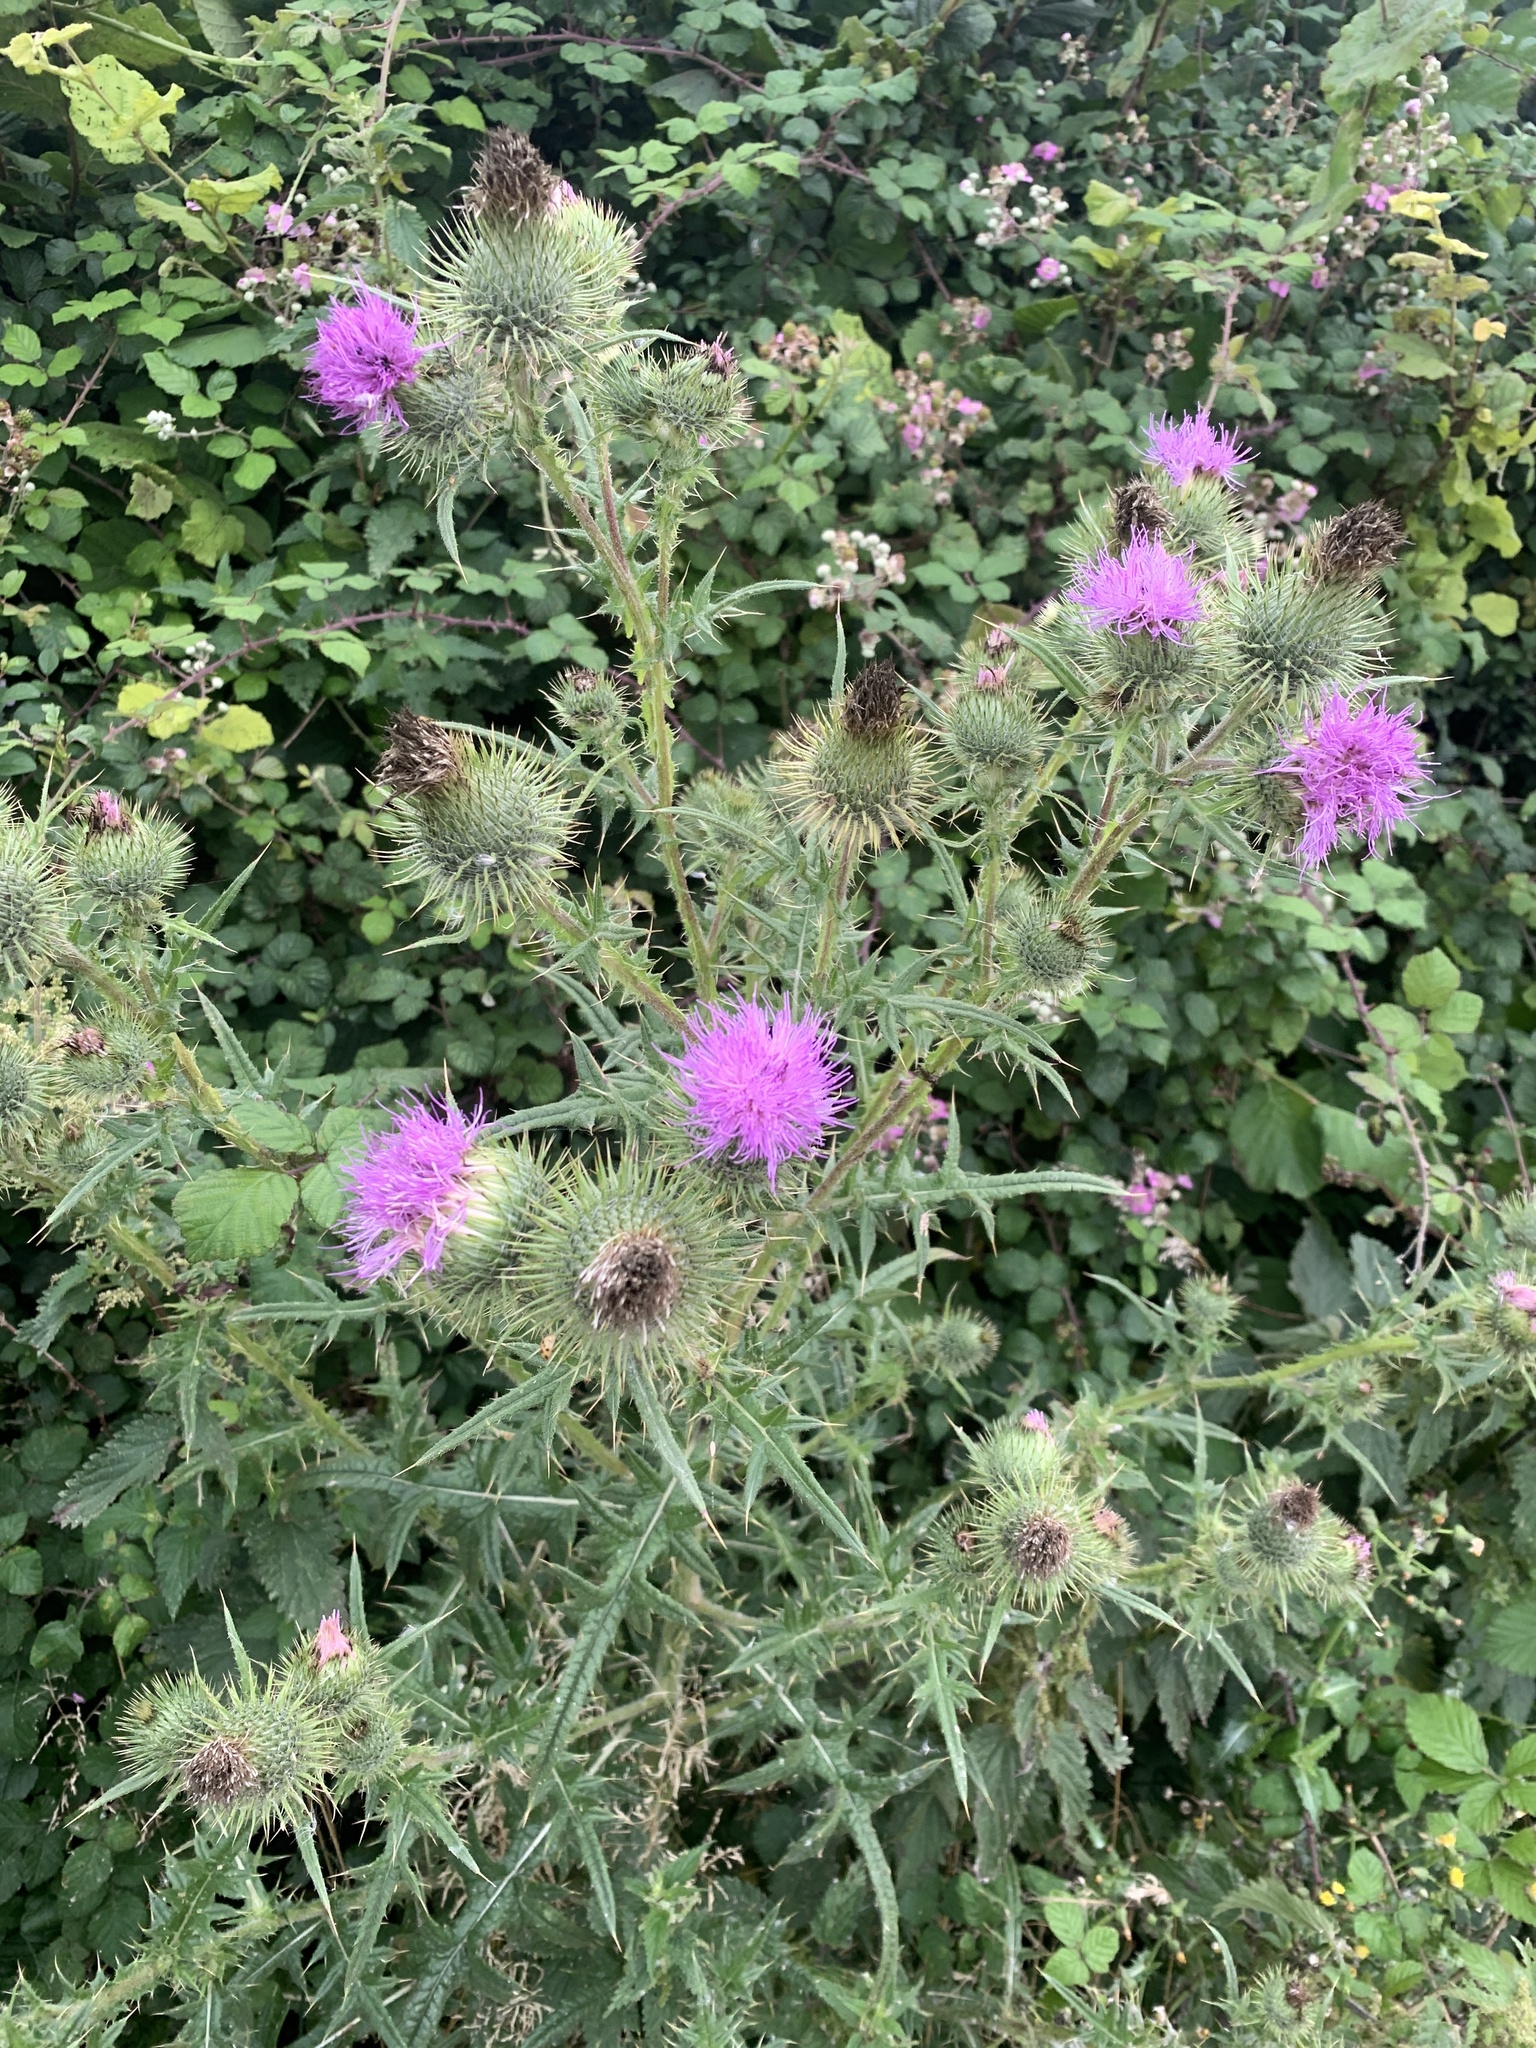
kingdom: Plantae
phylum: Tracheophyta
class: Magnoliopsida
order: Asterales
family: Asteraceae
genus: Cirsium
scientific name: Cirsium vulgare
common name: Bull thistle
